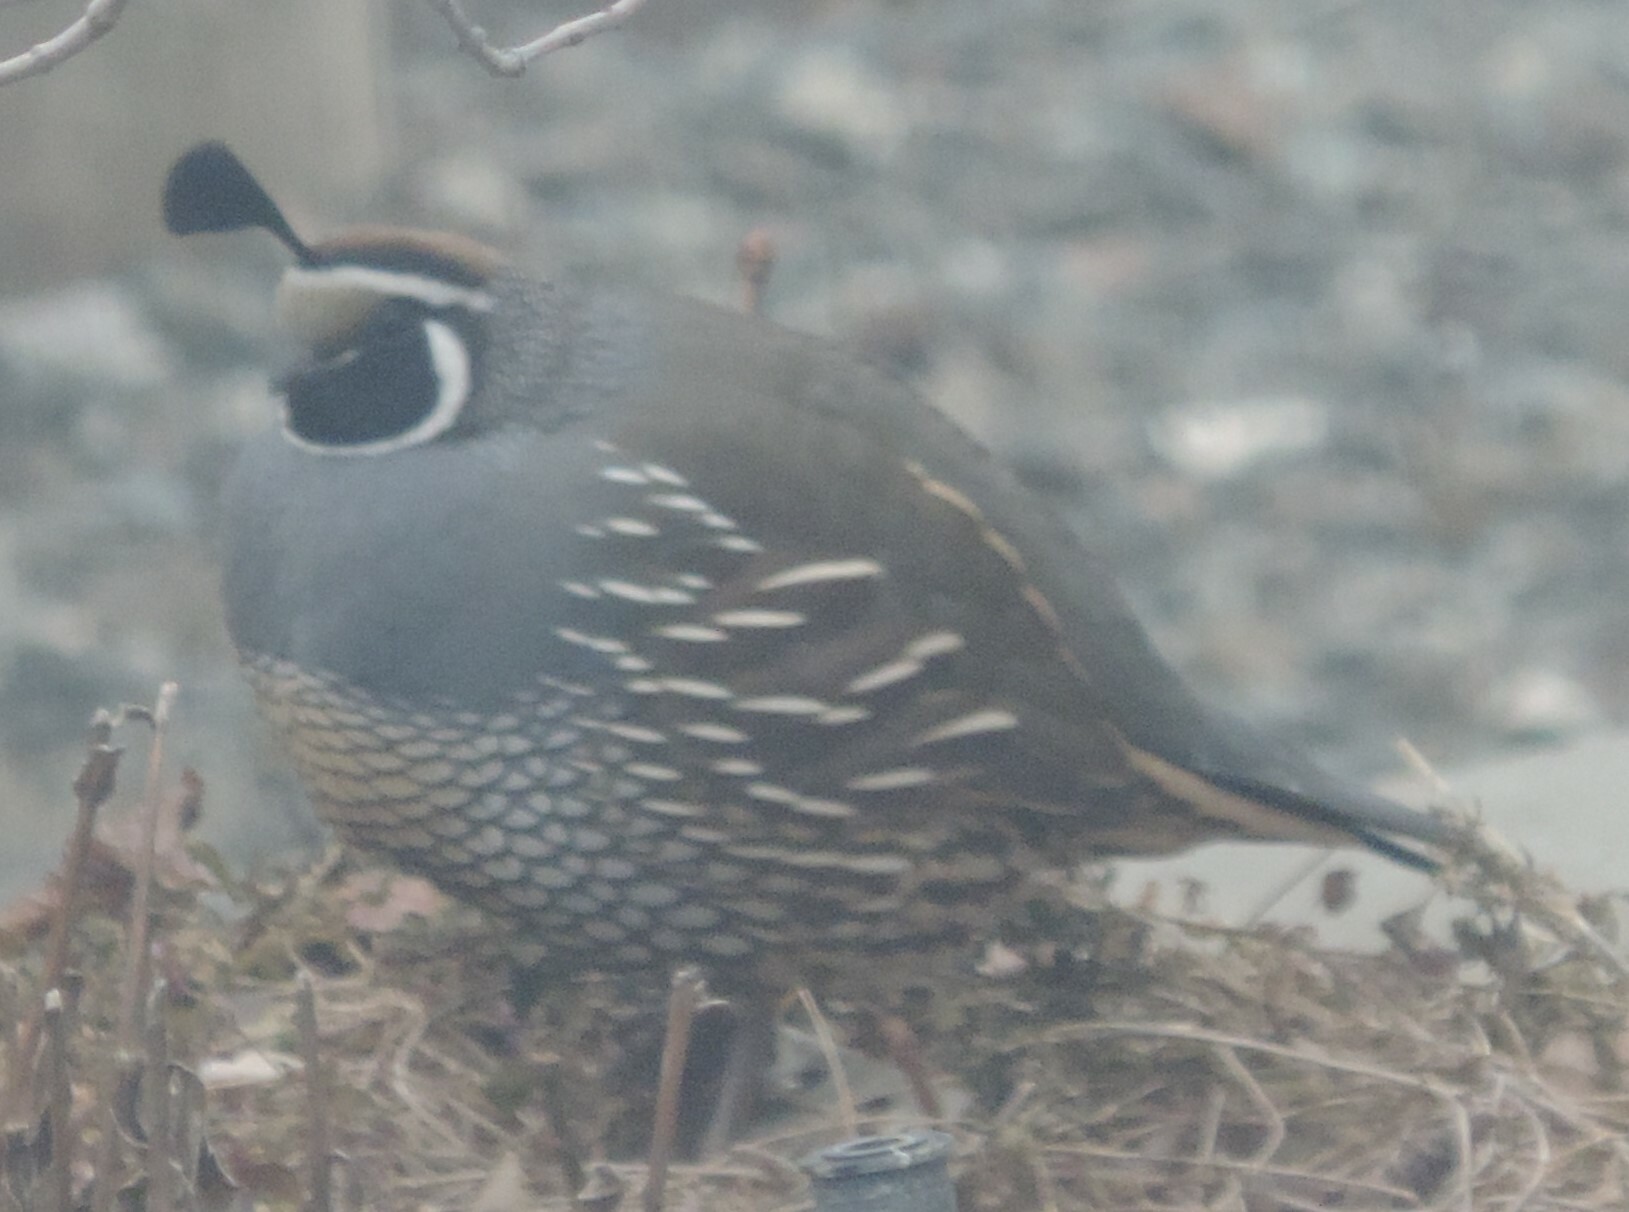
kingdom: Animalia
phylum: Chordata
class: Aves
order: Galliformes
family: Odontophoridae
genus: Callipepla
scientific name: Callipepla californica
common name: California quail
